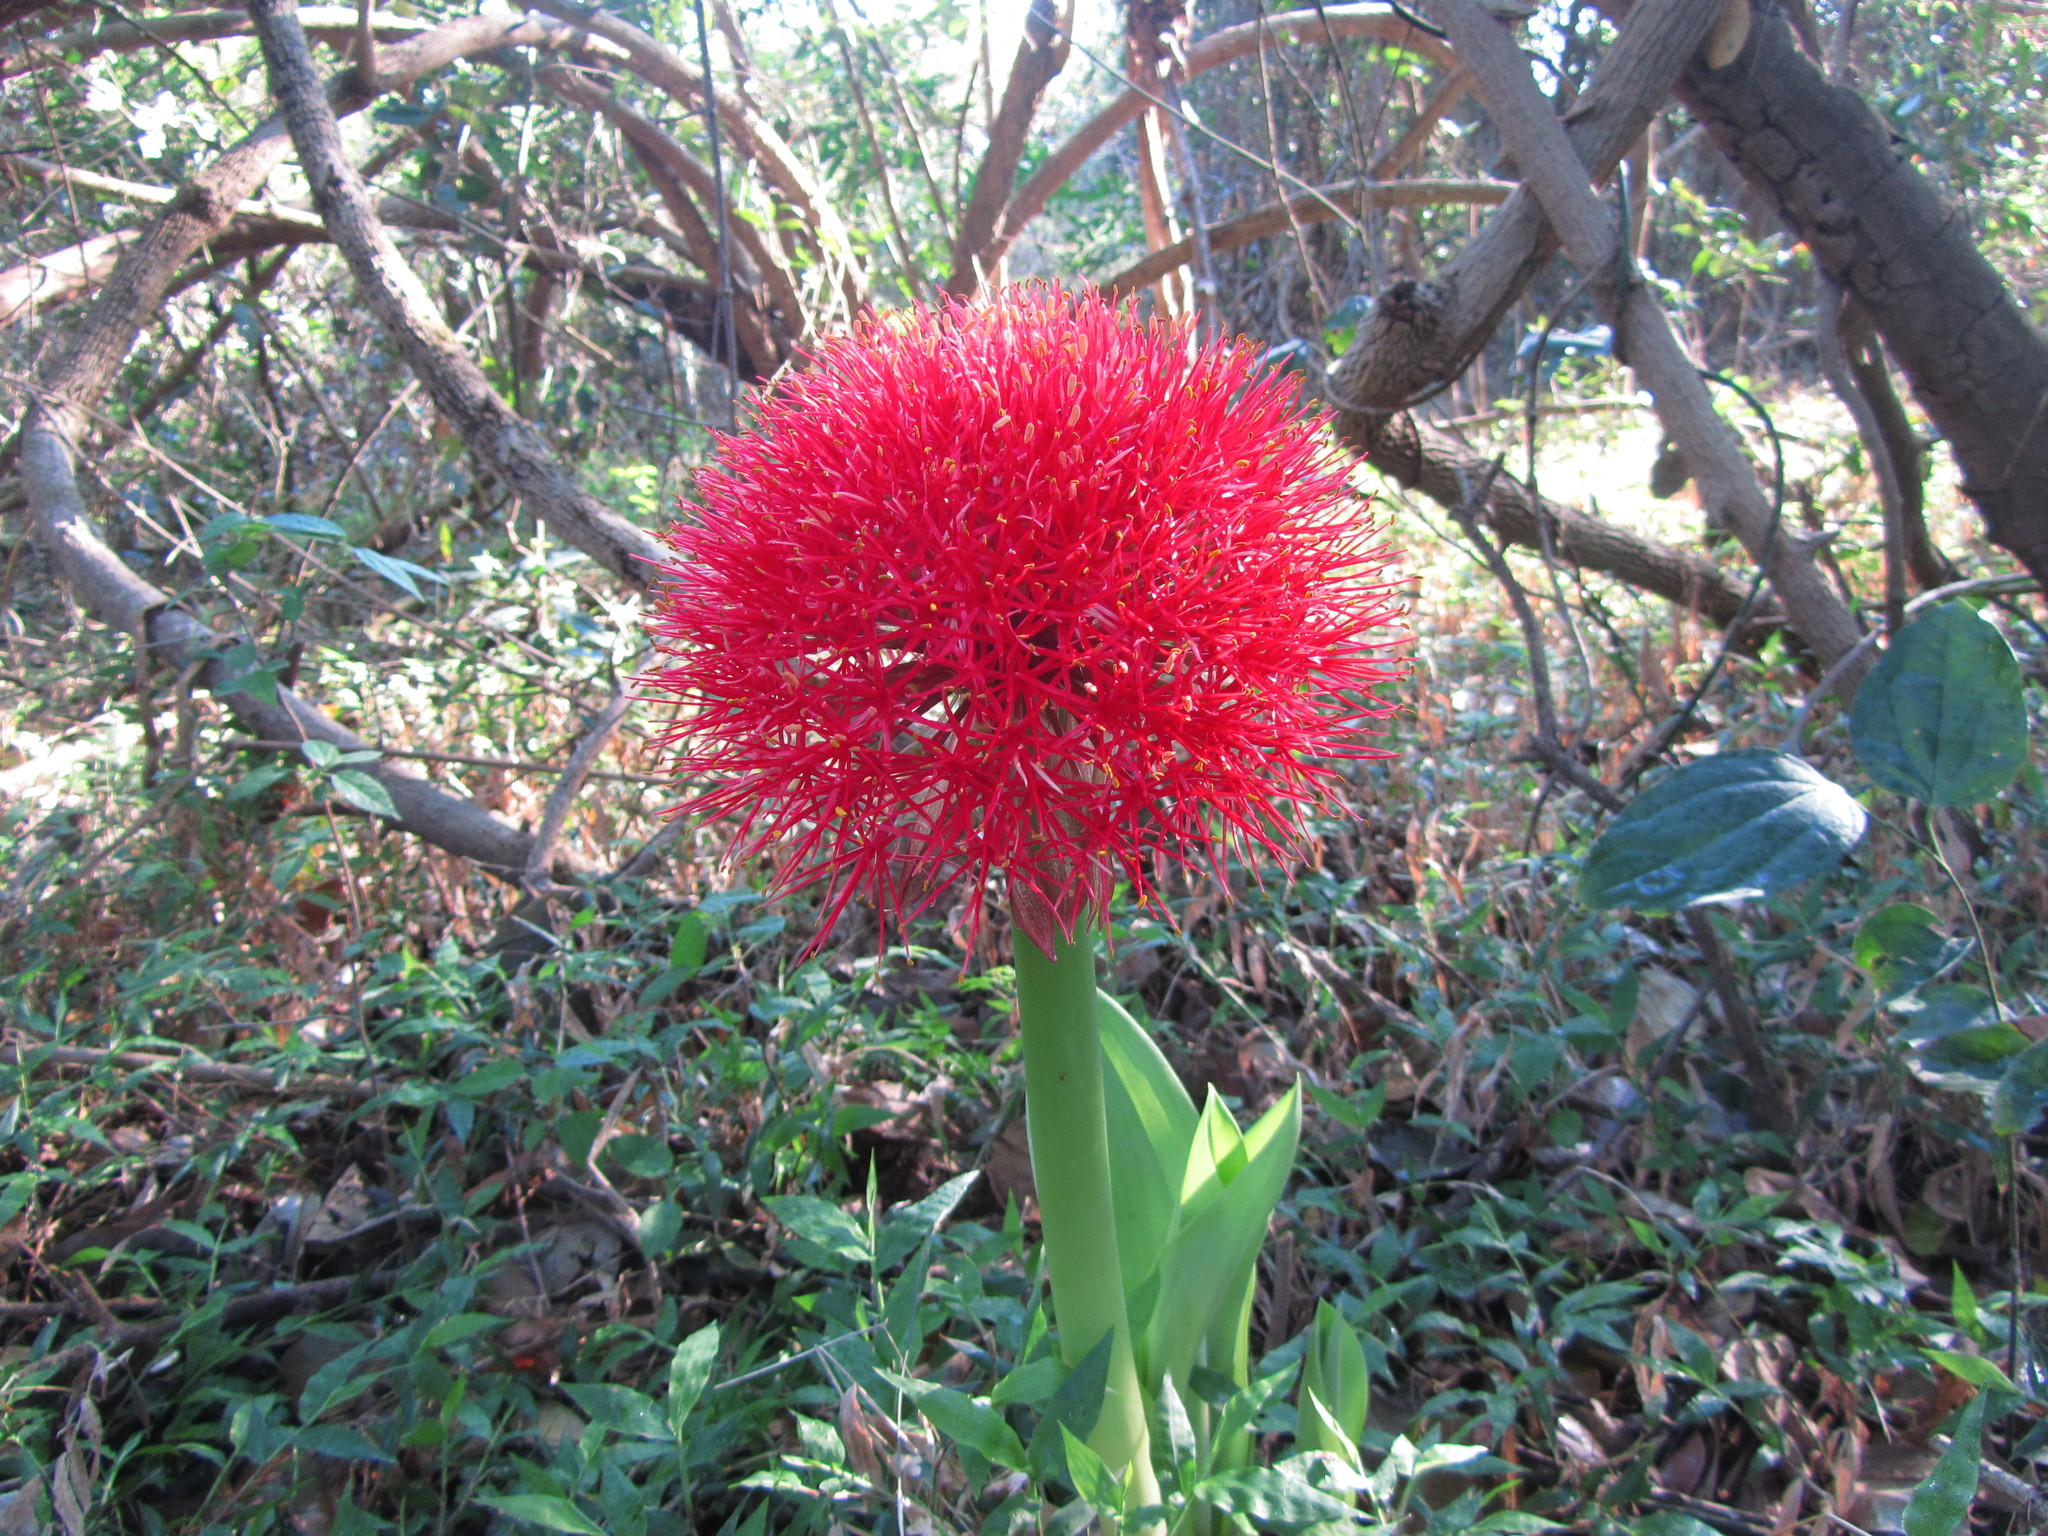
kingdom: Plantae
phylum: Tracheophyta
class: Liliopsida
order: Asparagales
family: Amaryllidaceae
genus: Scadoxus
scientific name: Scadoxus multiflorus
